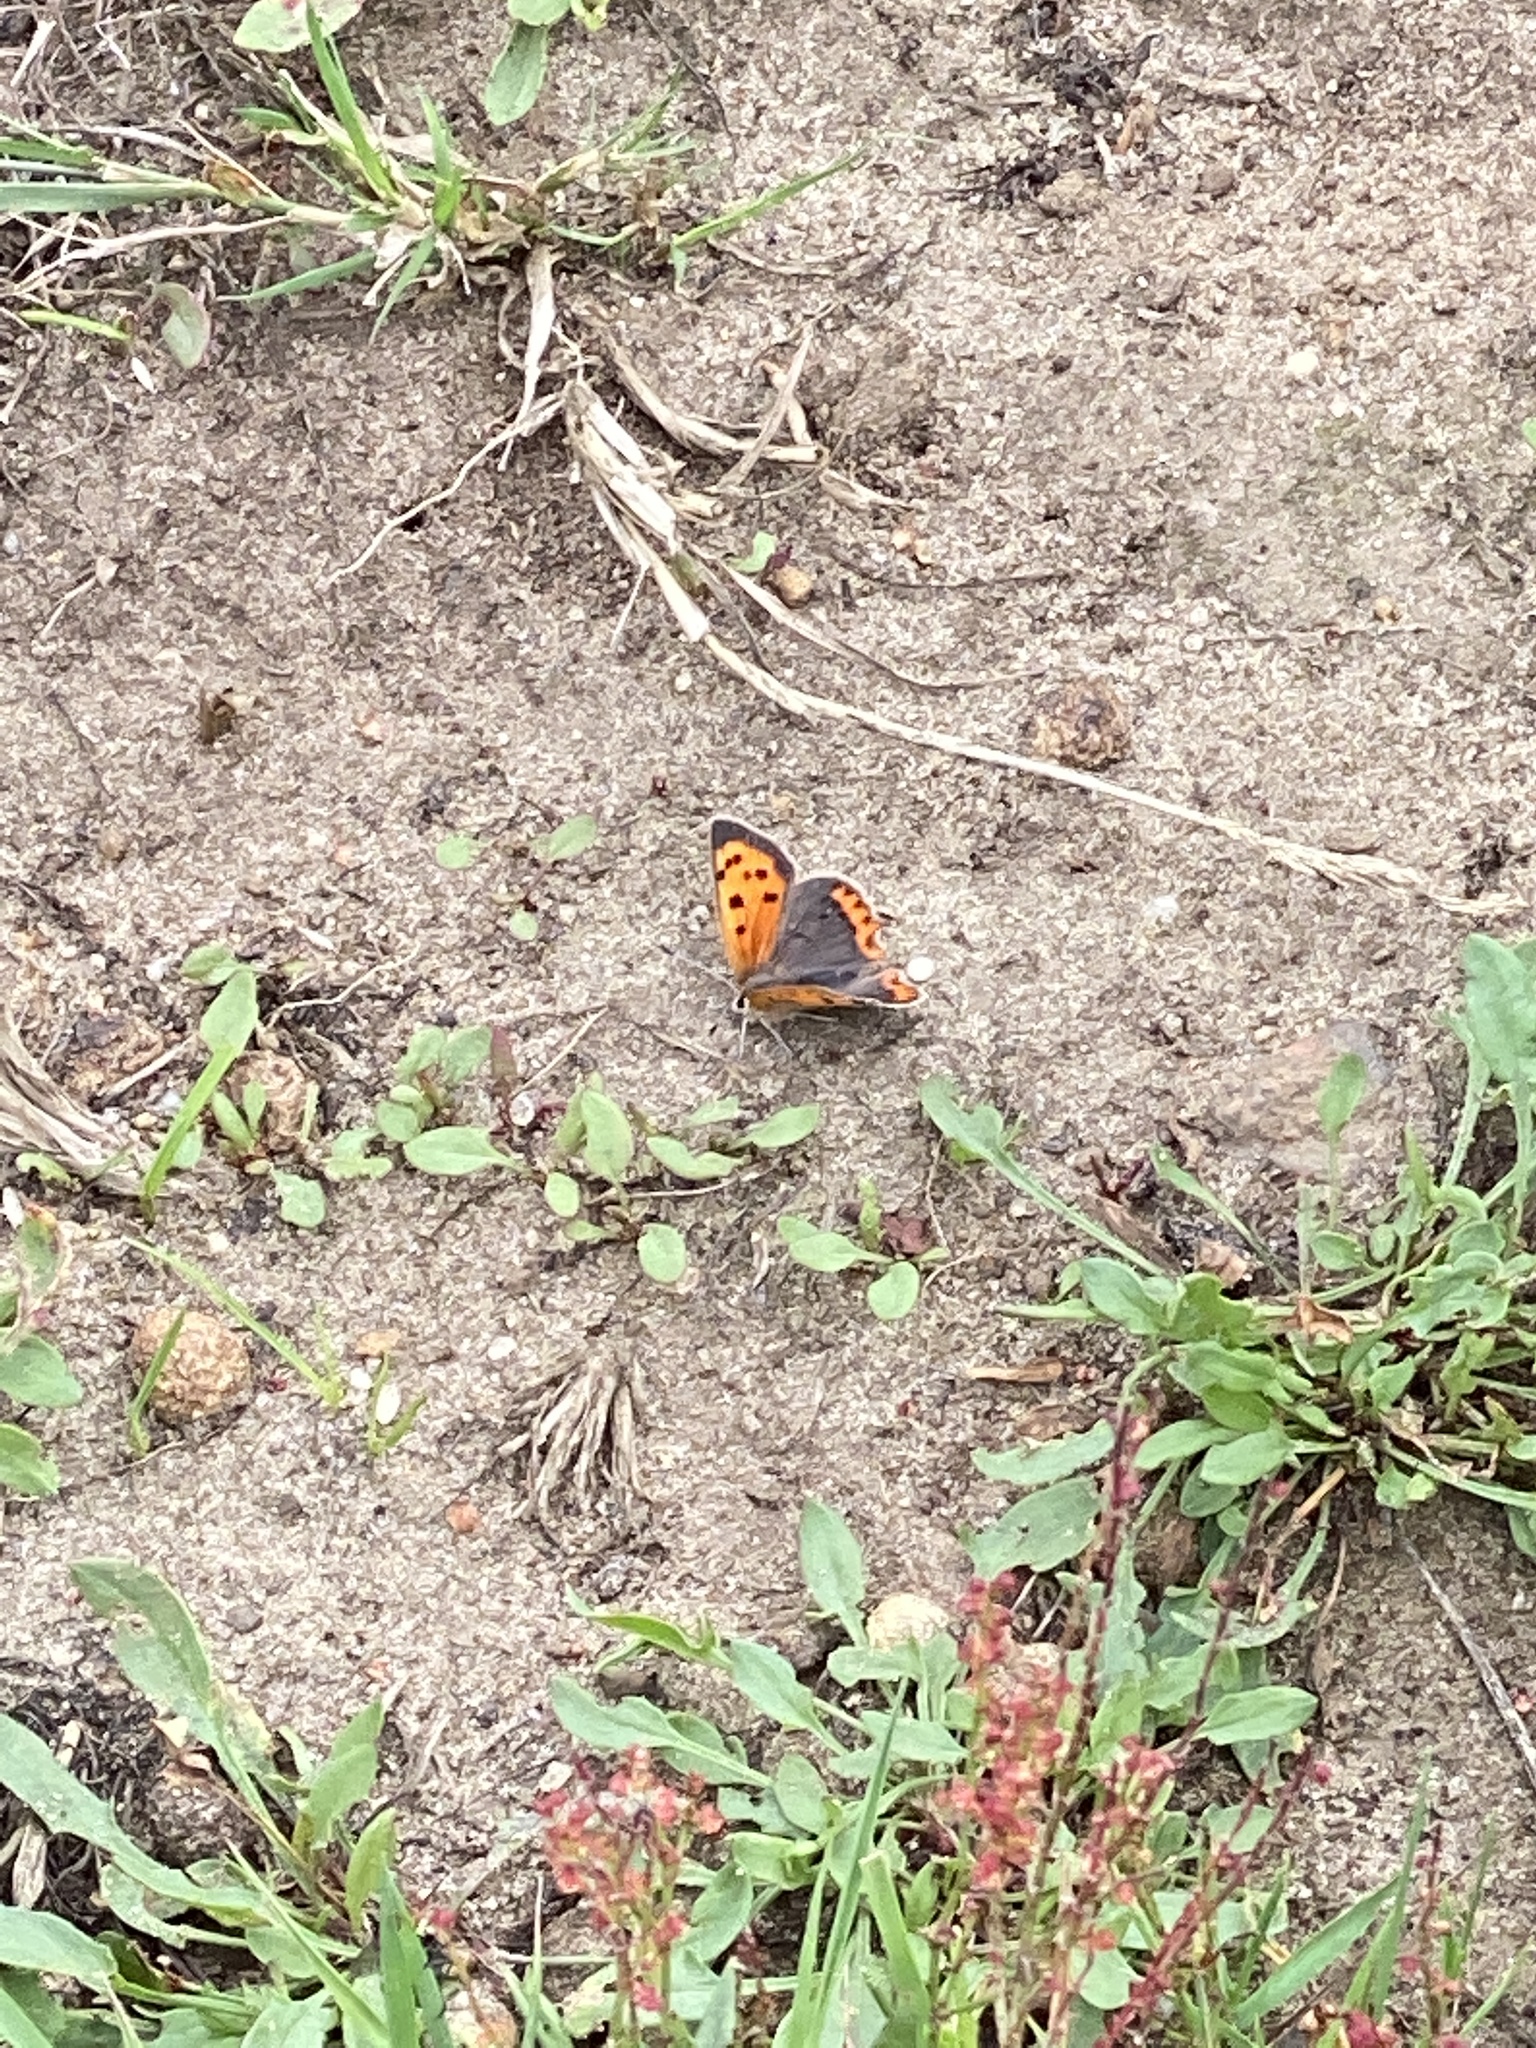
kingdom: Animalia
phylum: Arthropoda
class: Insecta
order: Lepidoptera
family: Lycaenidae
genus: Lycaena
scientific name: Lycaena phlaeas
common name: Small copper
